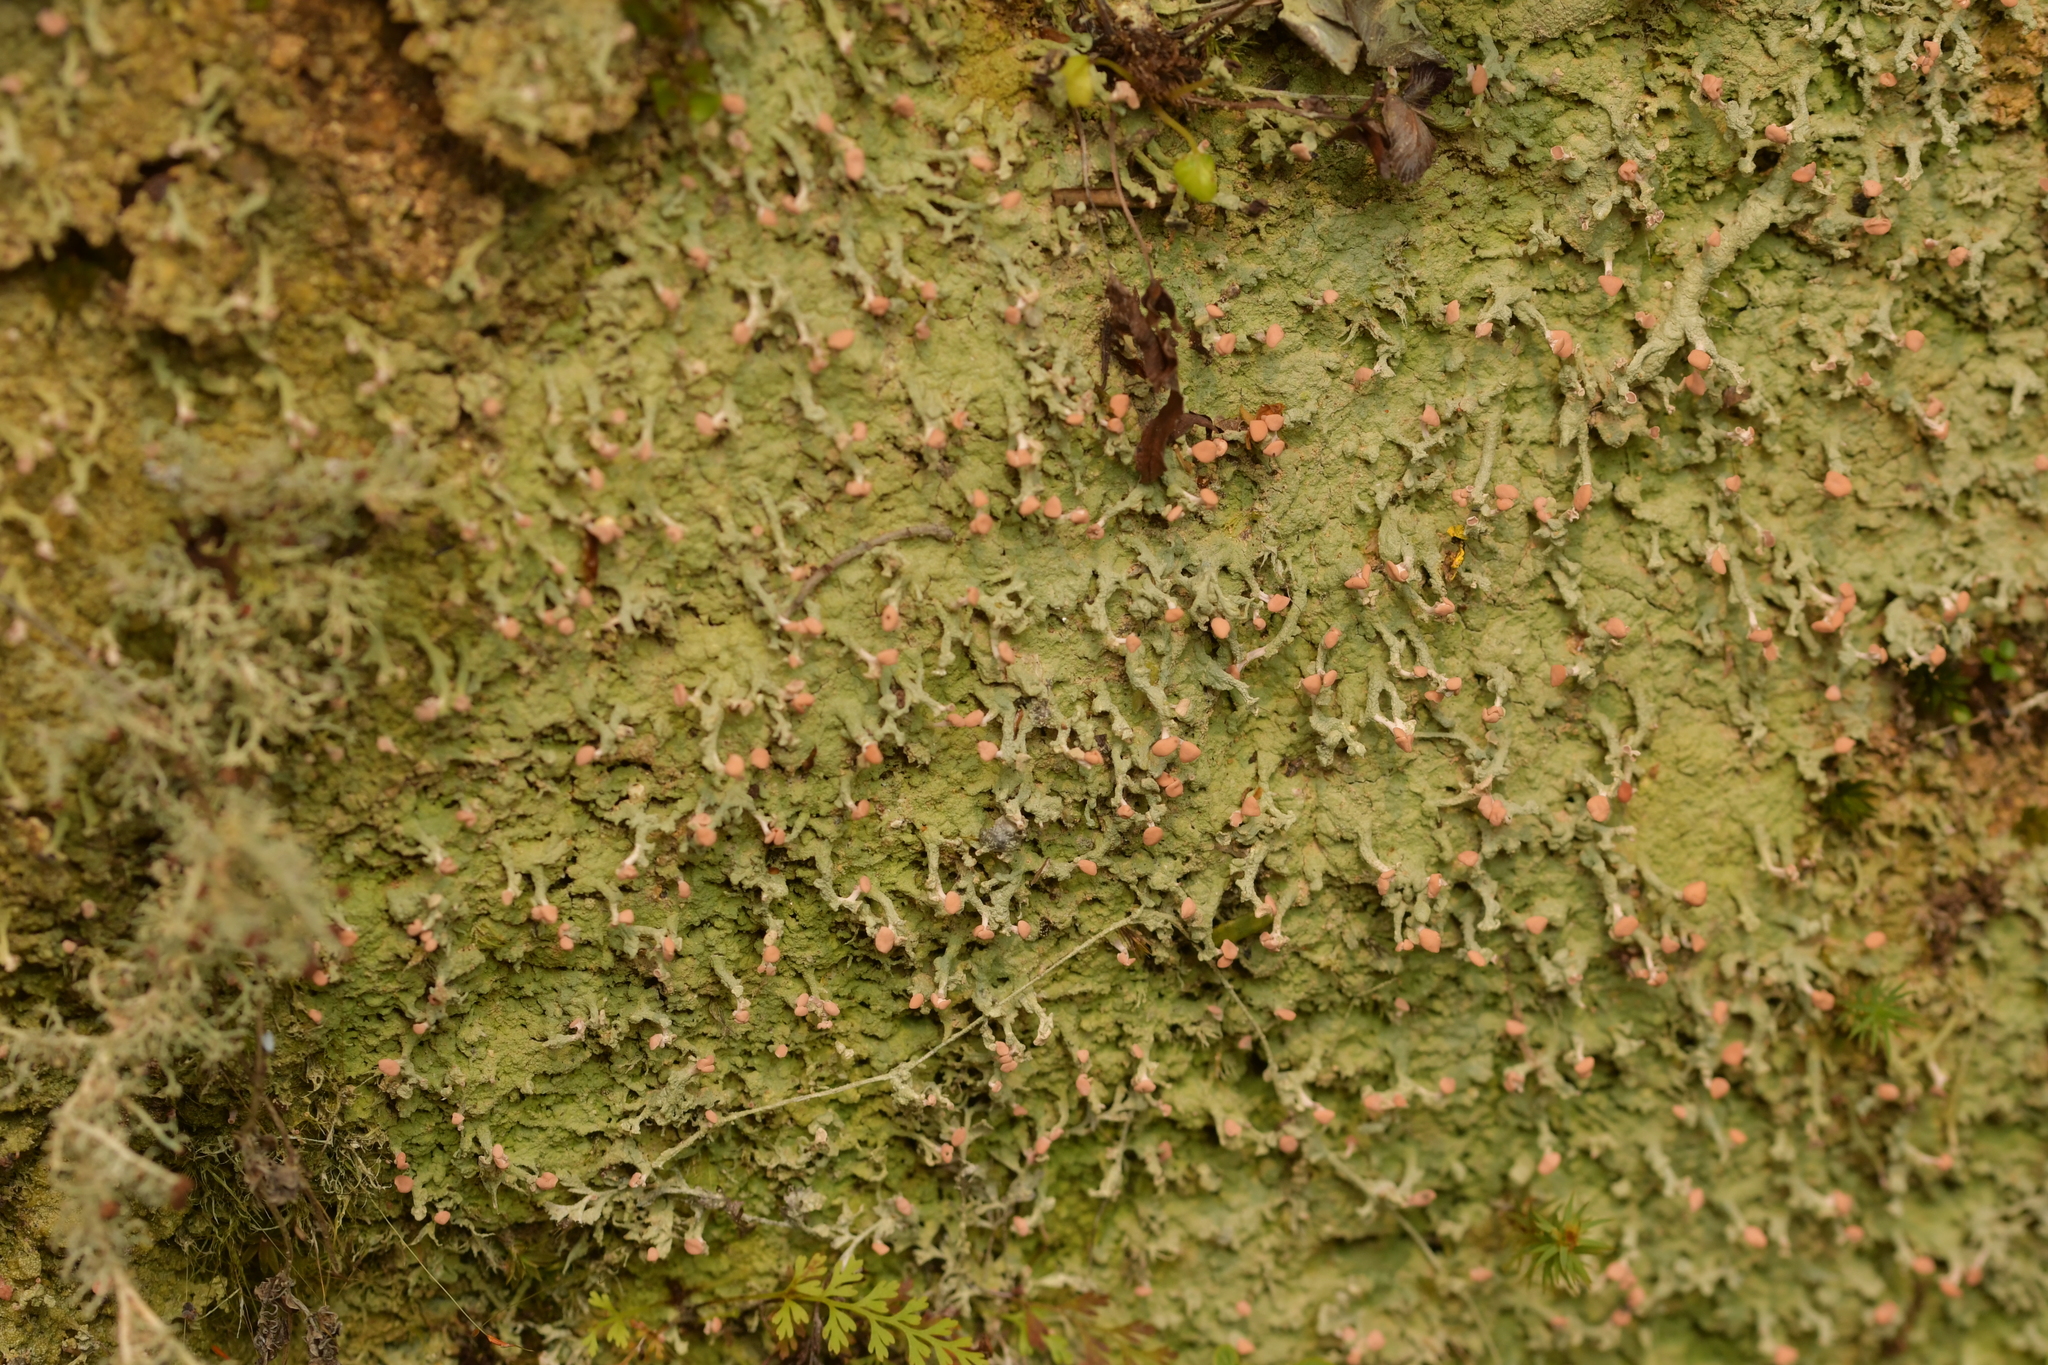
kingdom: Fungi
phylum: Ascomycota
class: Lecanoromycetes
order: Baeomycetales
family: Baeomycetaceae
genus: Baeomyces
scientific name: Baeomyces heteromorphus
